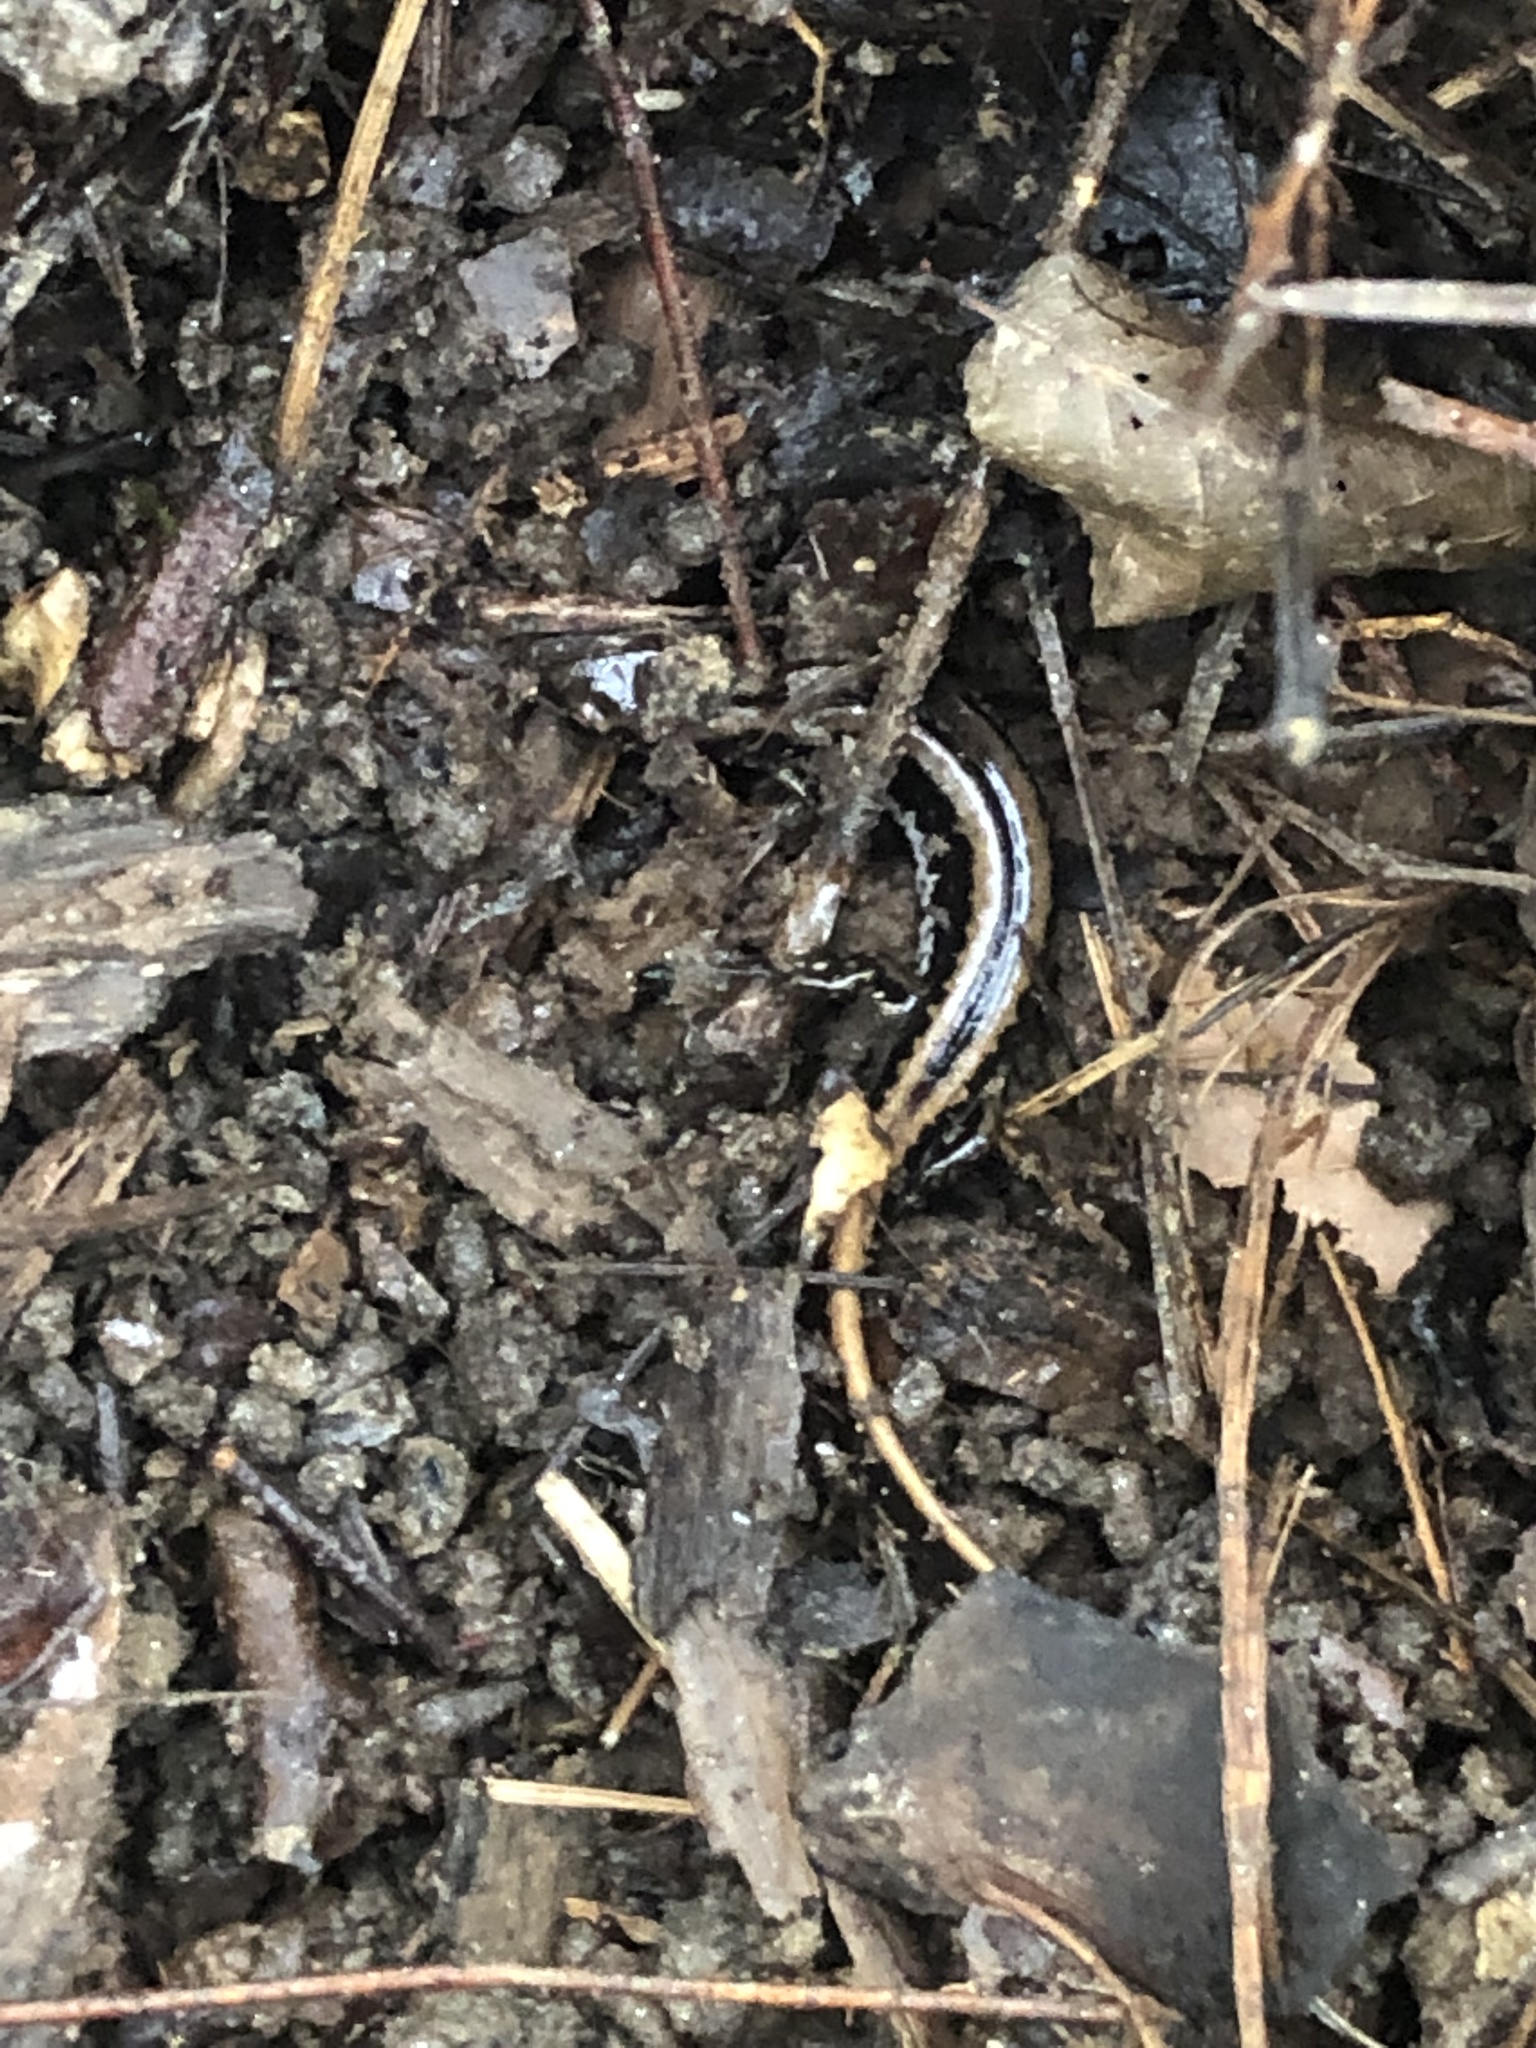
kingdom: Animalia
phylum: Chordata
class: Amphibia
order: Caudata
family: Plethodontidae
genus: Eurycea
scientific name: Eurycea guttolineata
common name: Three-lined salamander
